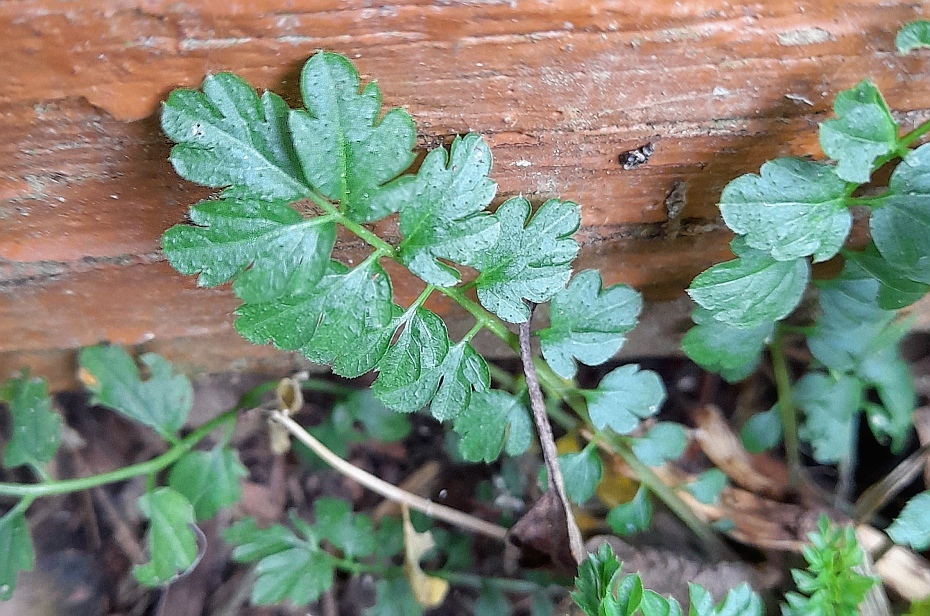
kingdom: Plantae
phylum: Tracheophyta
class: Magnoliopsida
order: Brassicales
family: Brassicaceae
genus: Cardamine
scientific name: Cardamine impatiens
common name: Narrow-leaved bitter-cress
